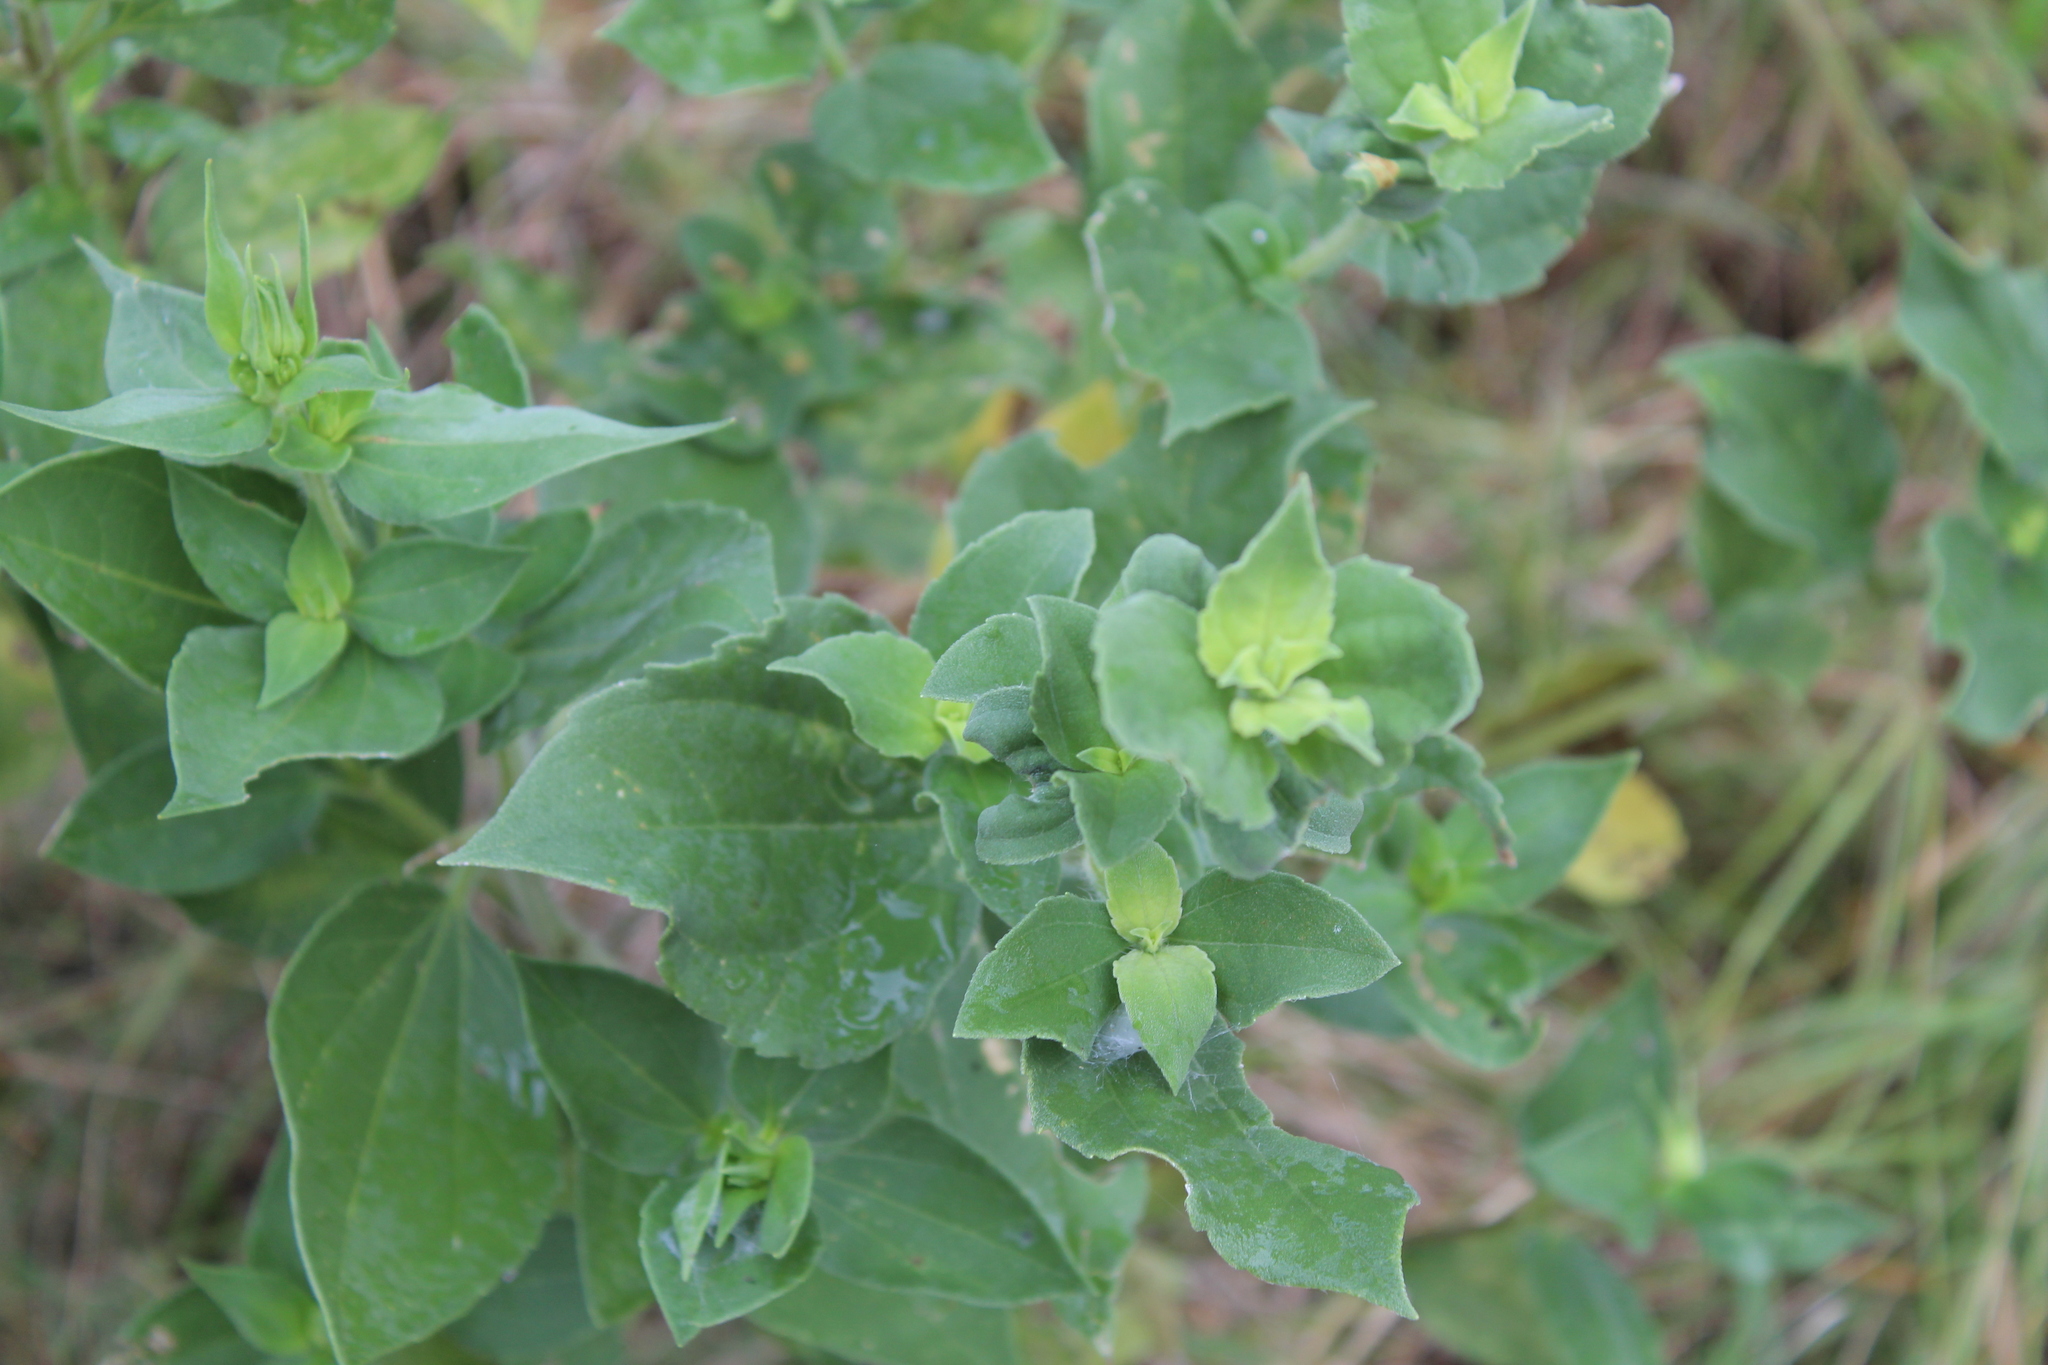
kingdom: Plantae
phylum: Tracheophyta
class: Magnoliopsida
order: Asterales
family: Asteraceae
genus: Iva
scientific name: Iva annua
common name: Marsh-elder
